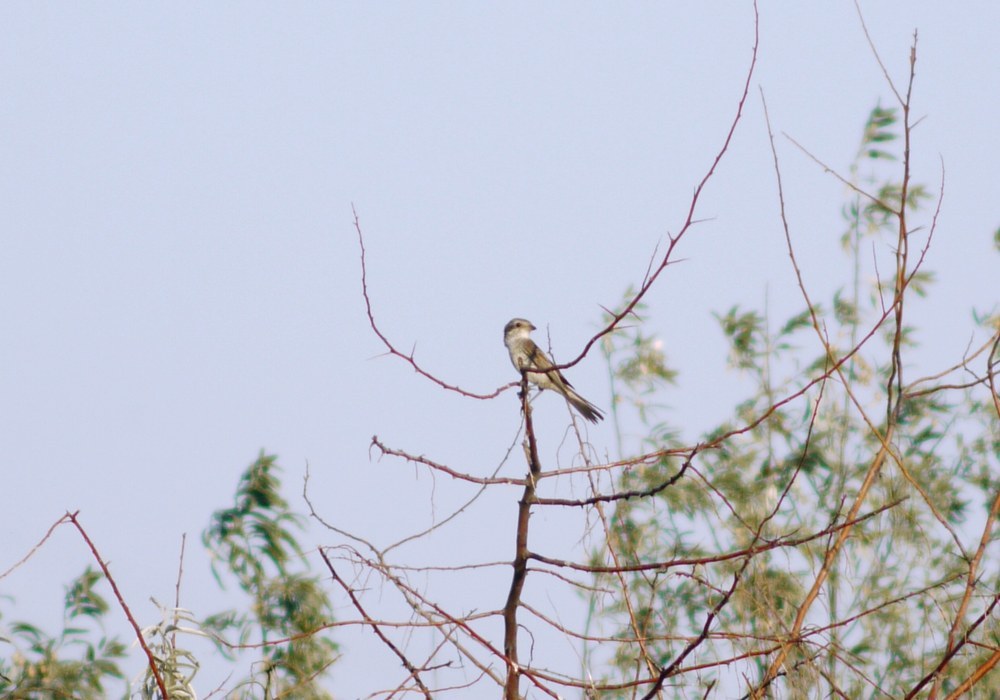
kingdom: Animalia
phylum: Chordata
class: Aves
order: Passeriformes
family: Laniidae
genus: Lanius
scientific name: Lanius collurio
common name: Red-backed shrike
